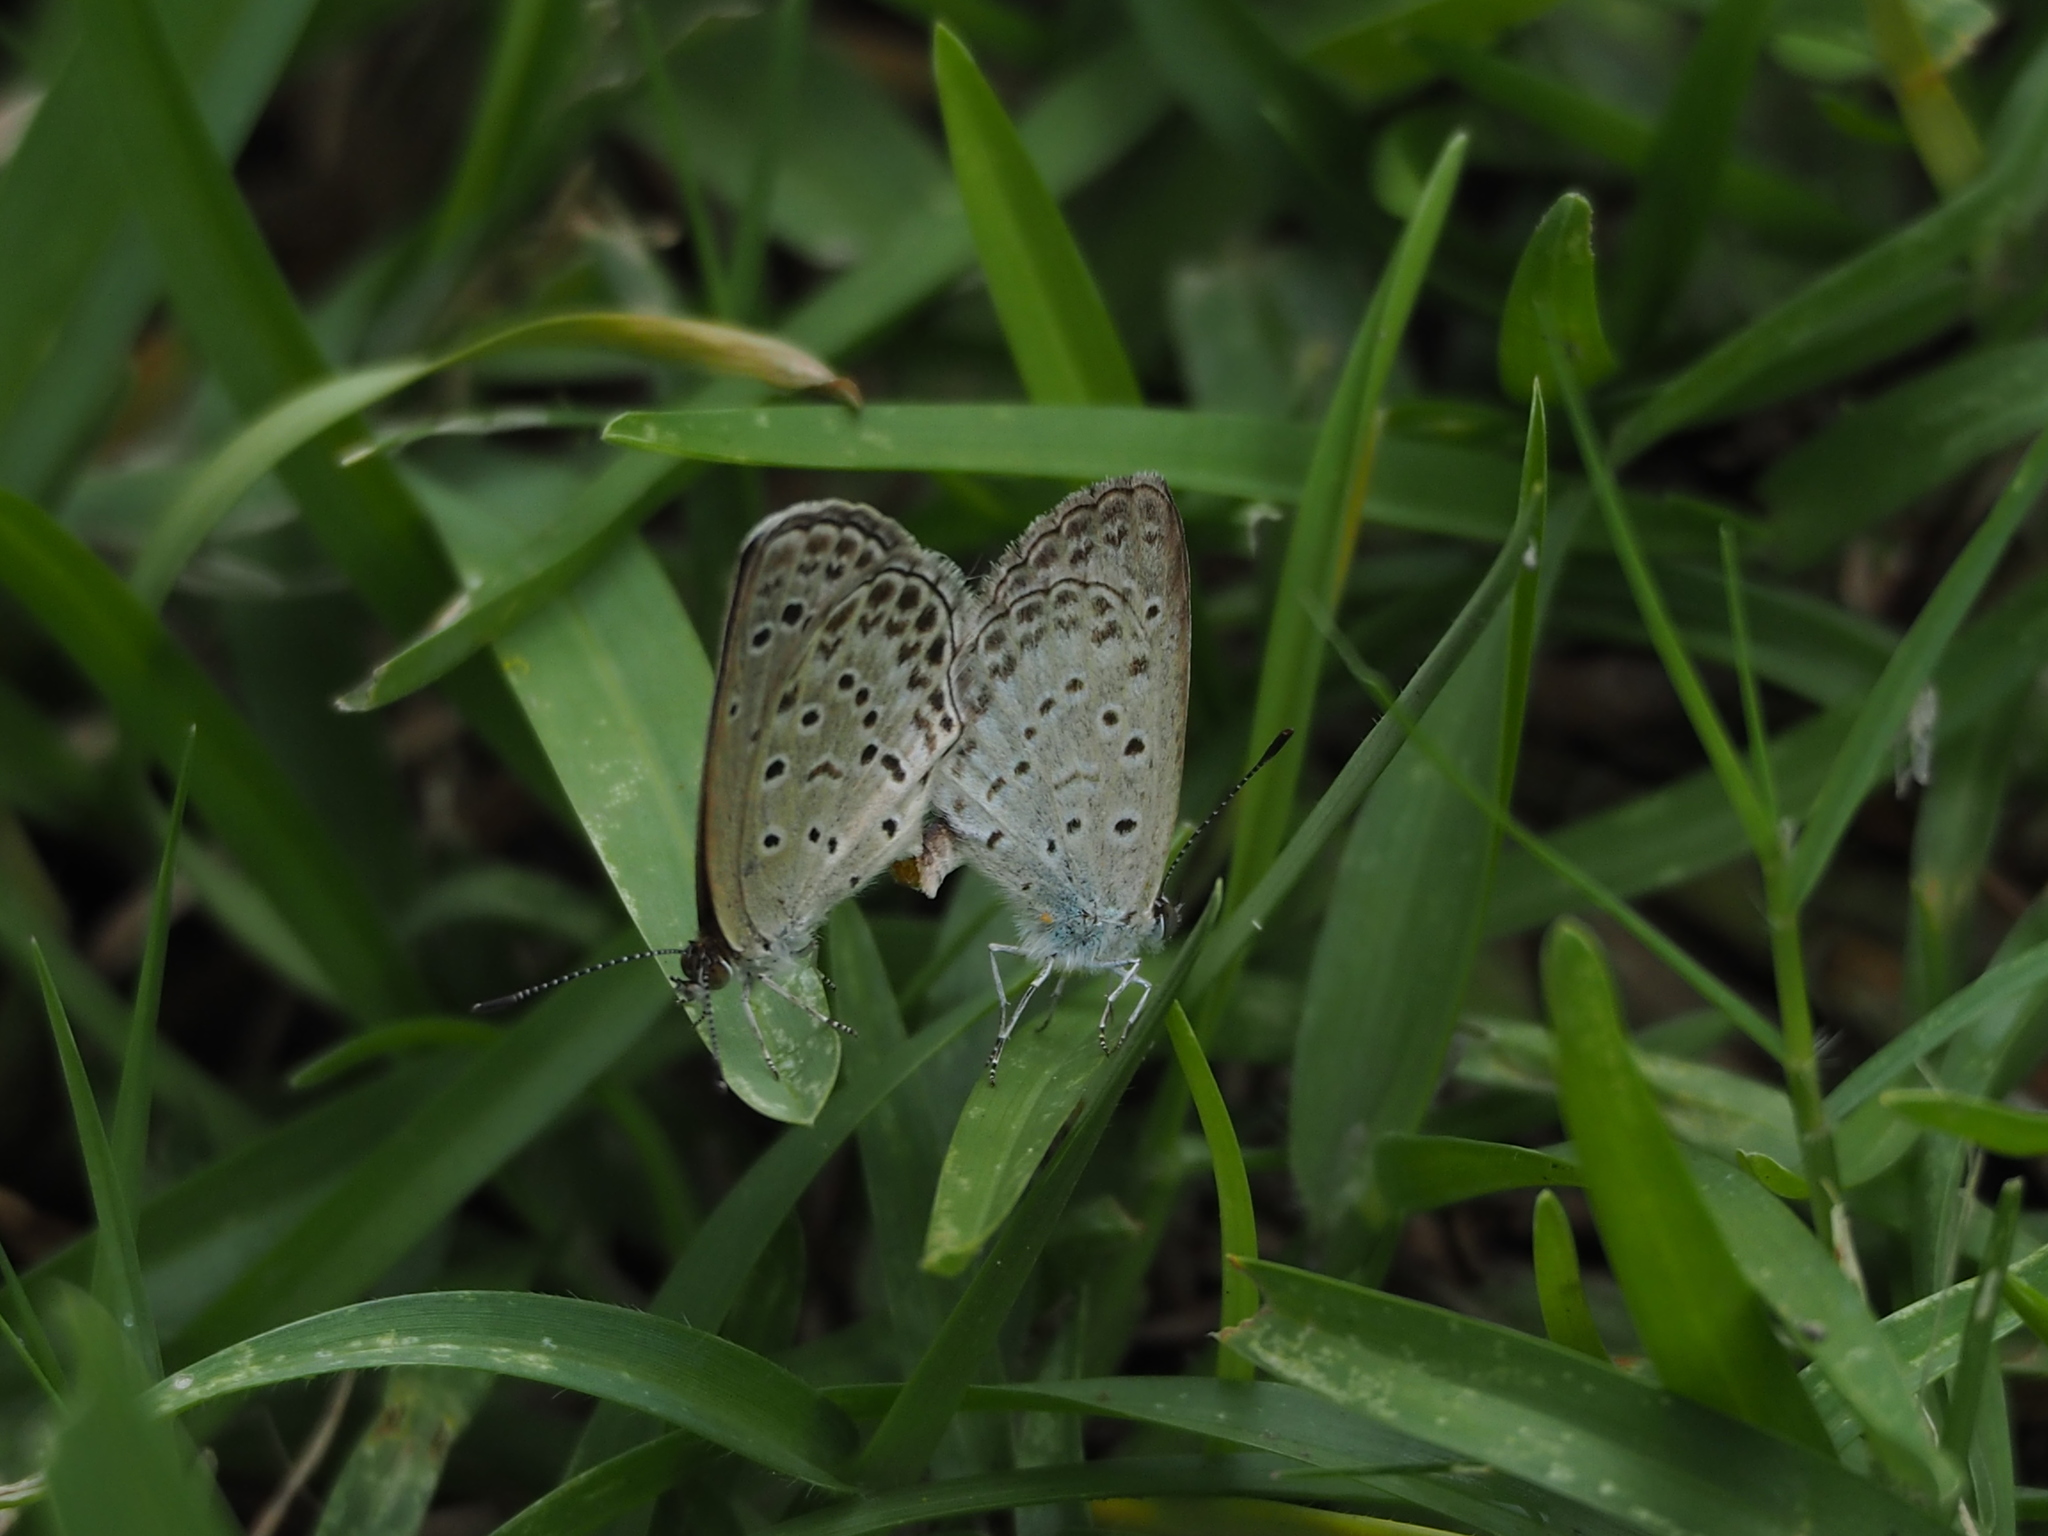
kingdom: Animalia
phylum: Arthropoda
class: Insecta
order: Lepidoptera
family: Lycaenidae
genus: Pseudozizeeria
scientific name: Pseudozizeeria maha
